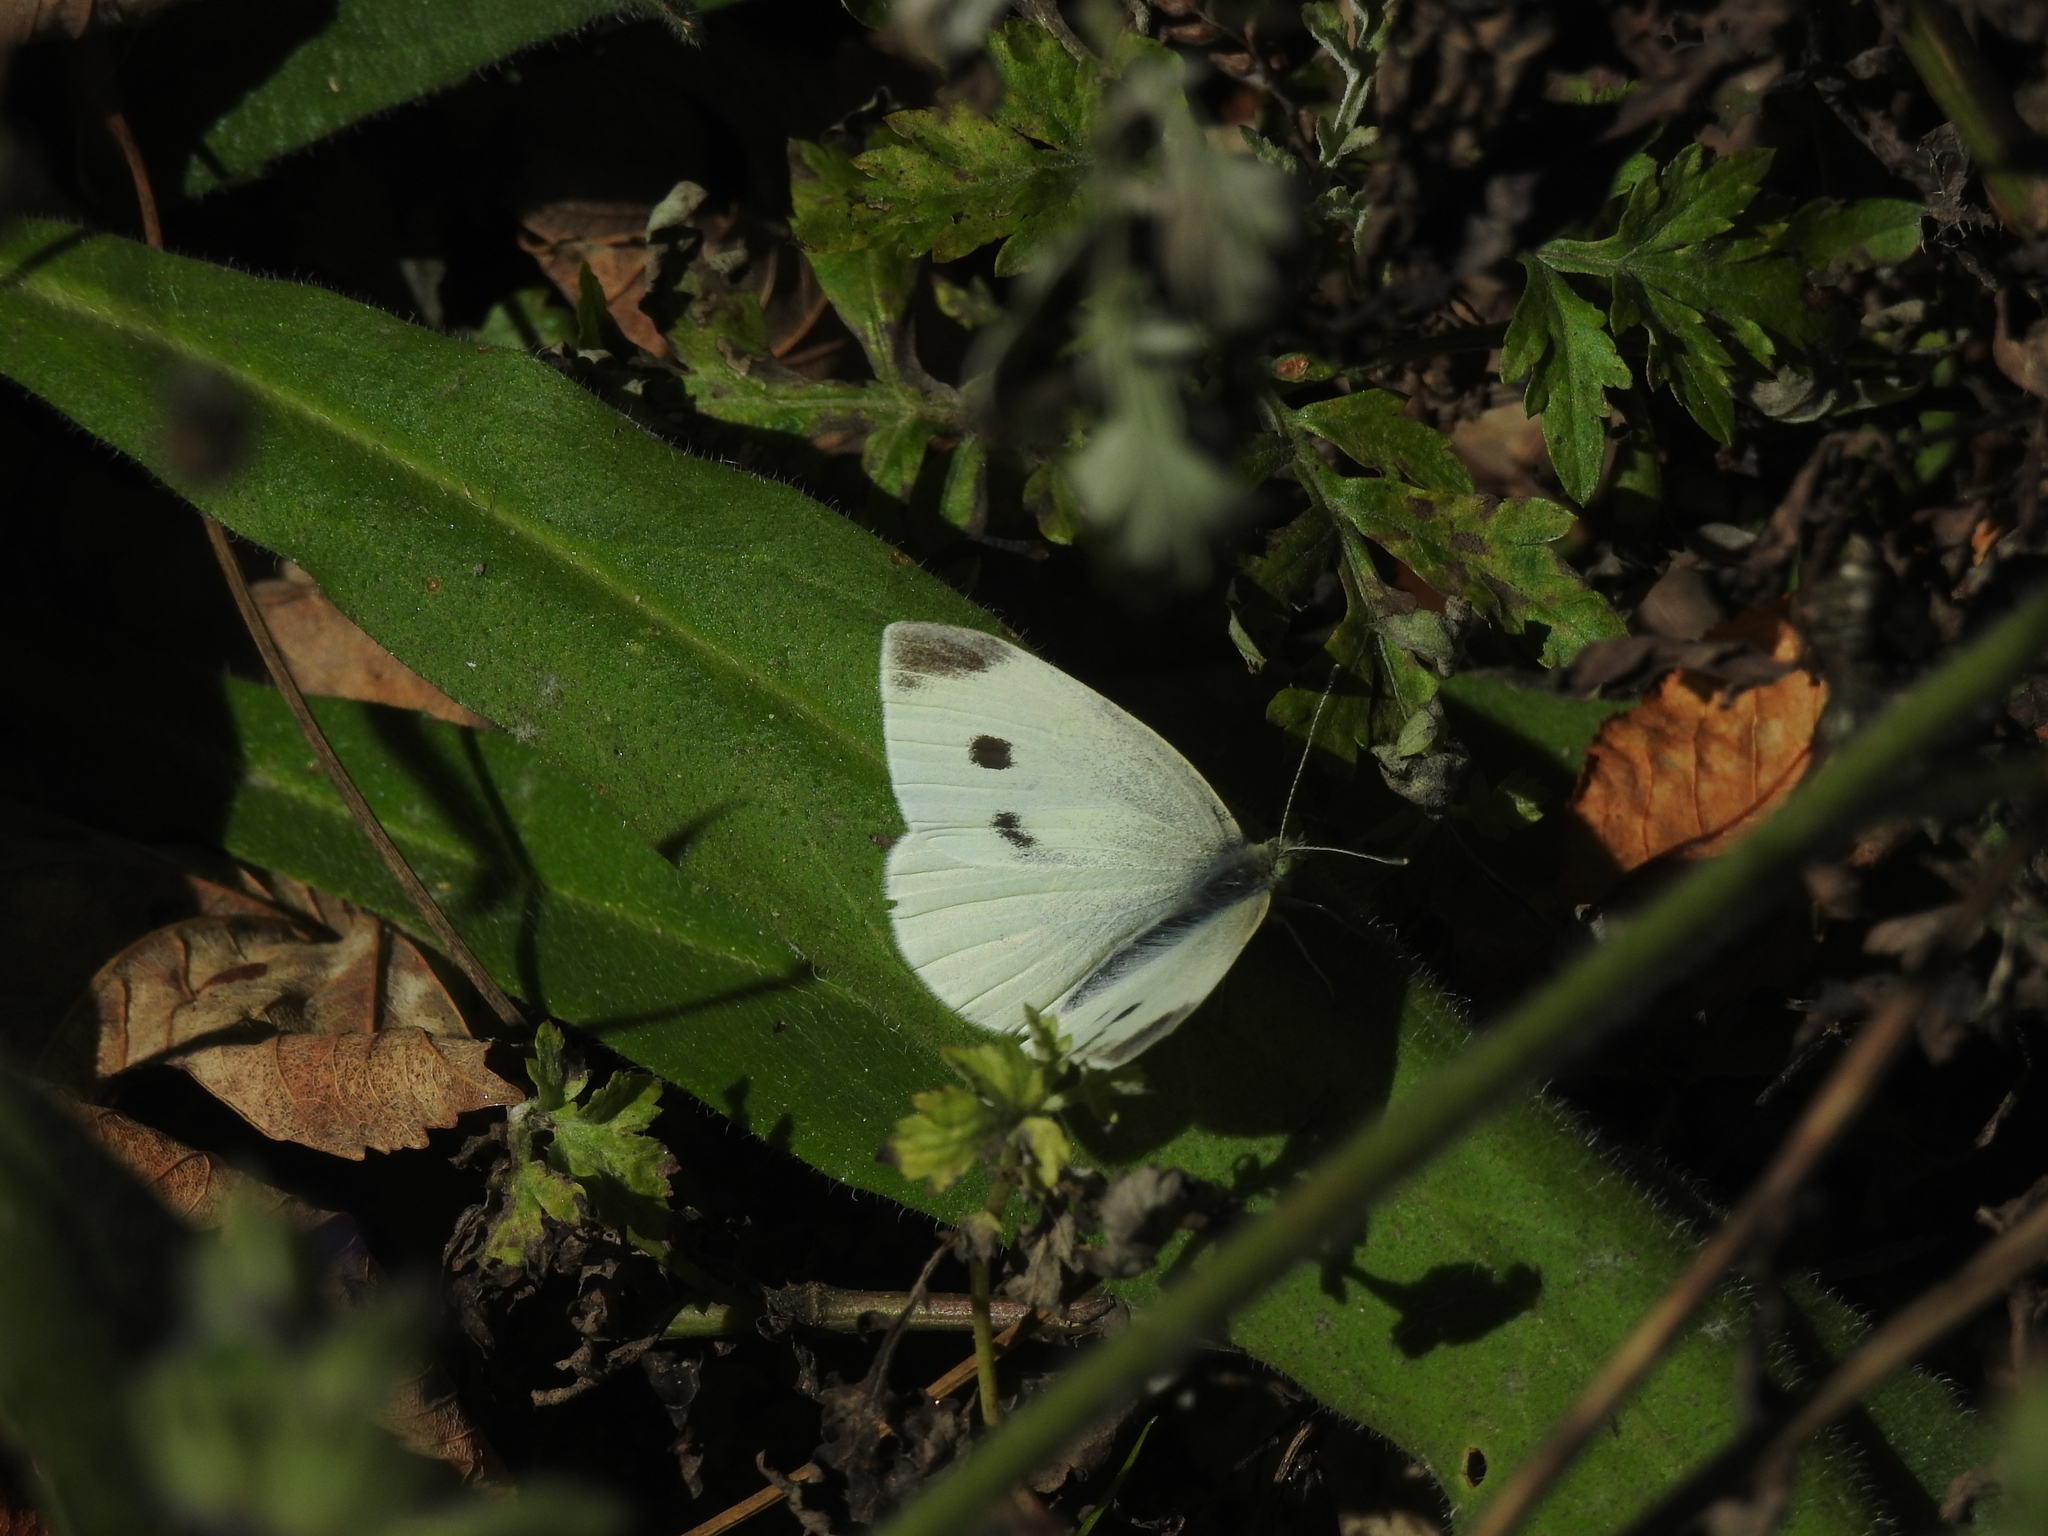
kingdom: Animalia
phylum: Arthropoda
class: Insecta
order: Lepidoptera
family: Pieridae
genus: Pieris
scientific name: Pieris rapae
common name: Small white
